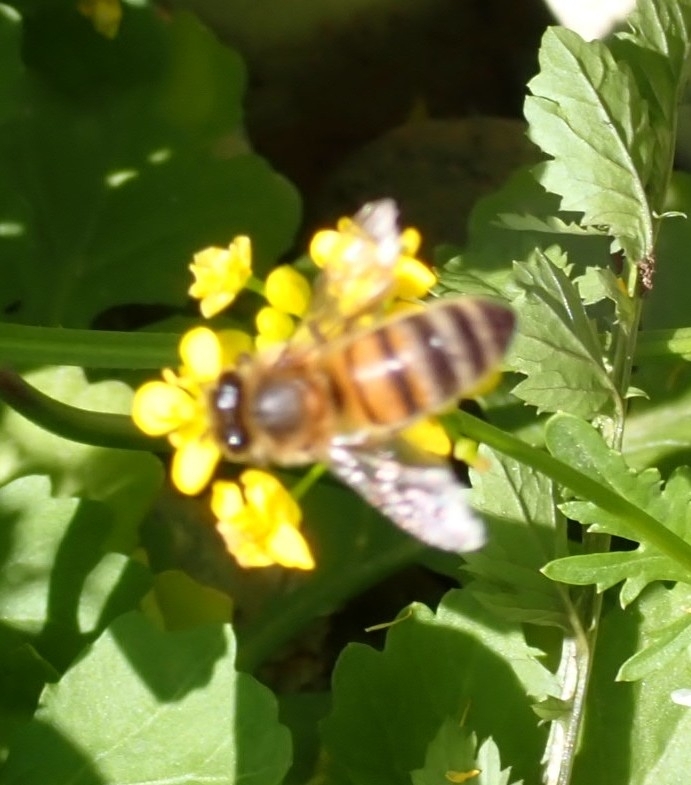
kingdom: Animalia
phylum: Arthropoda
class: Insecta
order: Hymenoptera
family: Apidae
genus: Apis
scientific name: Apis mellifera
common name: Honey bee
